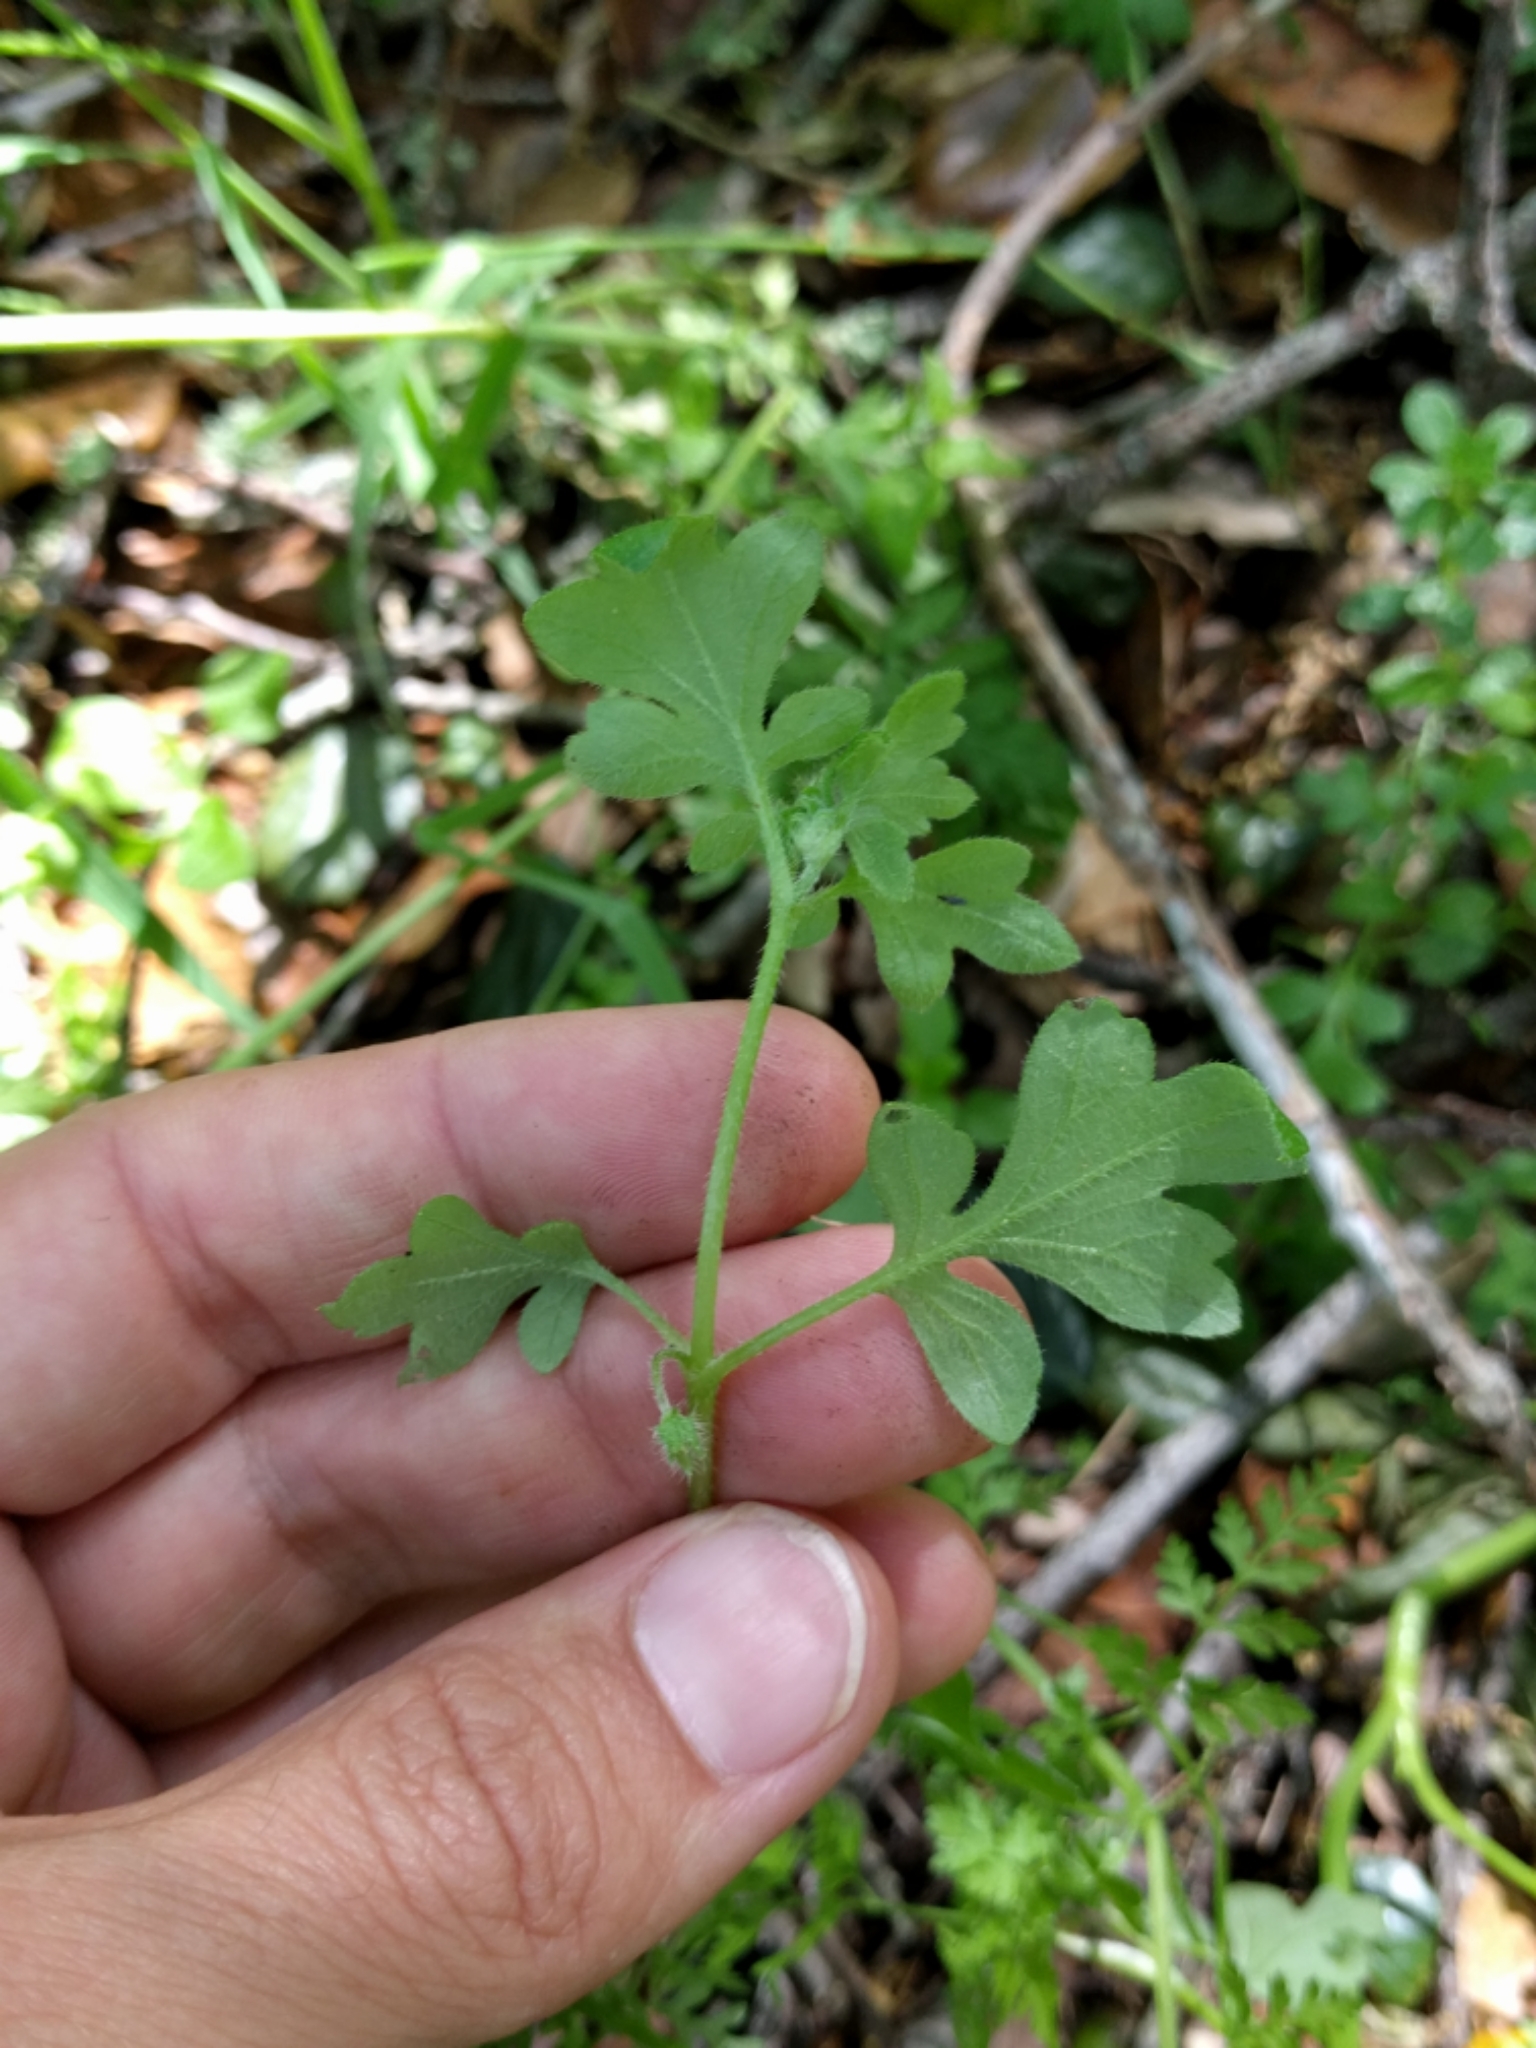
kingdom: Plantae
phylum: Tracheophyta
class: Magnoliopsida
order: Boraginales
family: Hydrophyllaceae
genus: Nemophila
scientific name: Nemophila parviflora
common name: Small-flowered baby-blue-eyes
